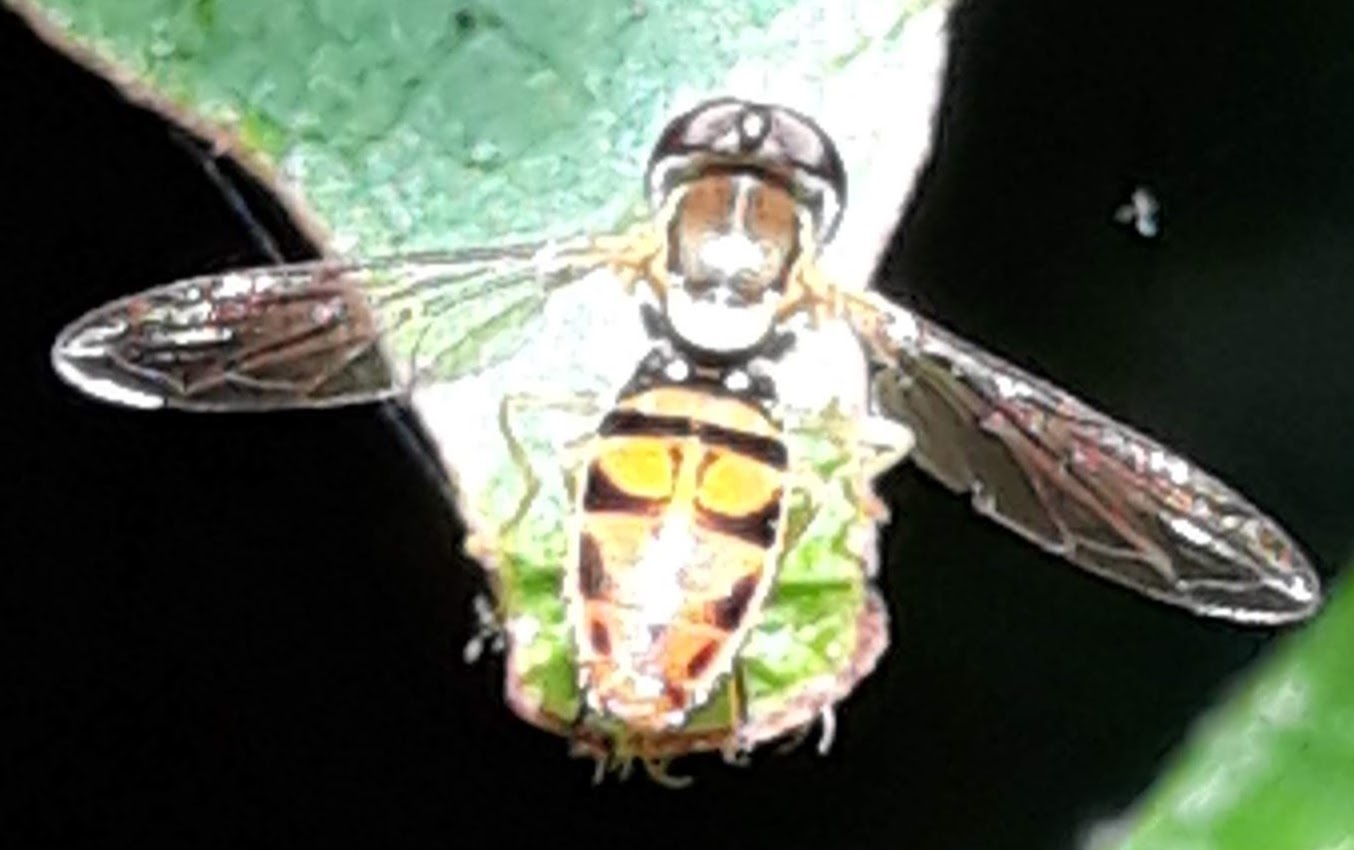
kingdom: Animalia
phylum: Arthropoda
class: Insecta
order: Diptera
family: Syrphidae
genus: Toxomerus
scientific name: Toxomerus marginatus
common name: Syrphid fly
